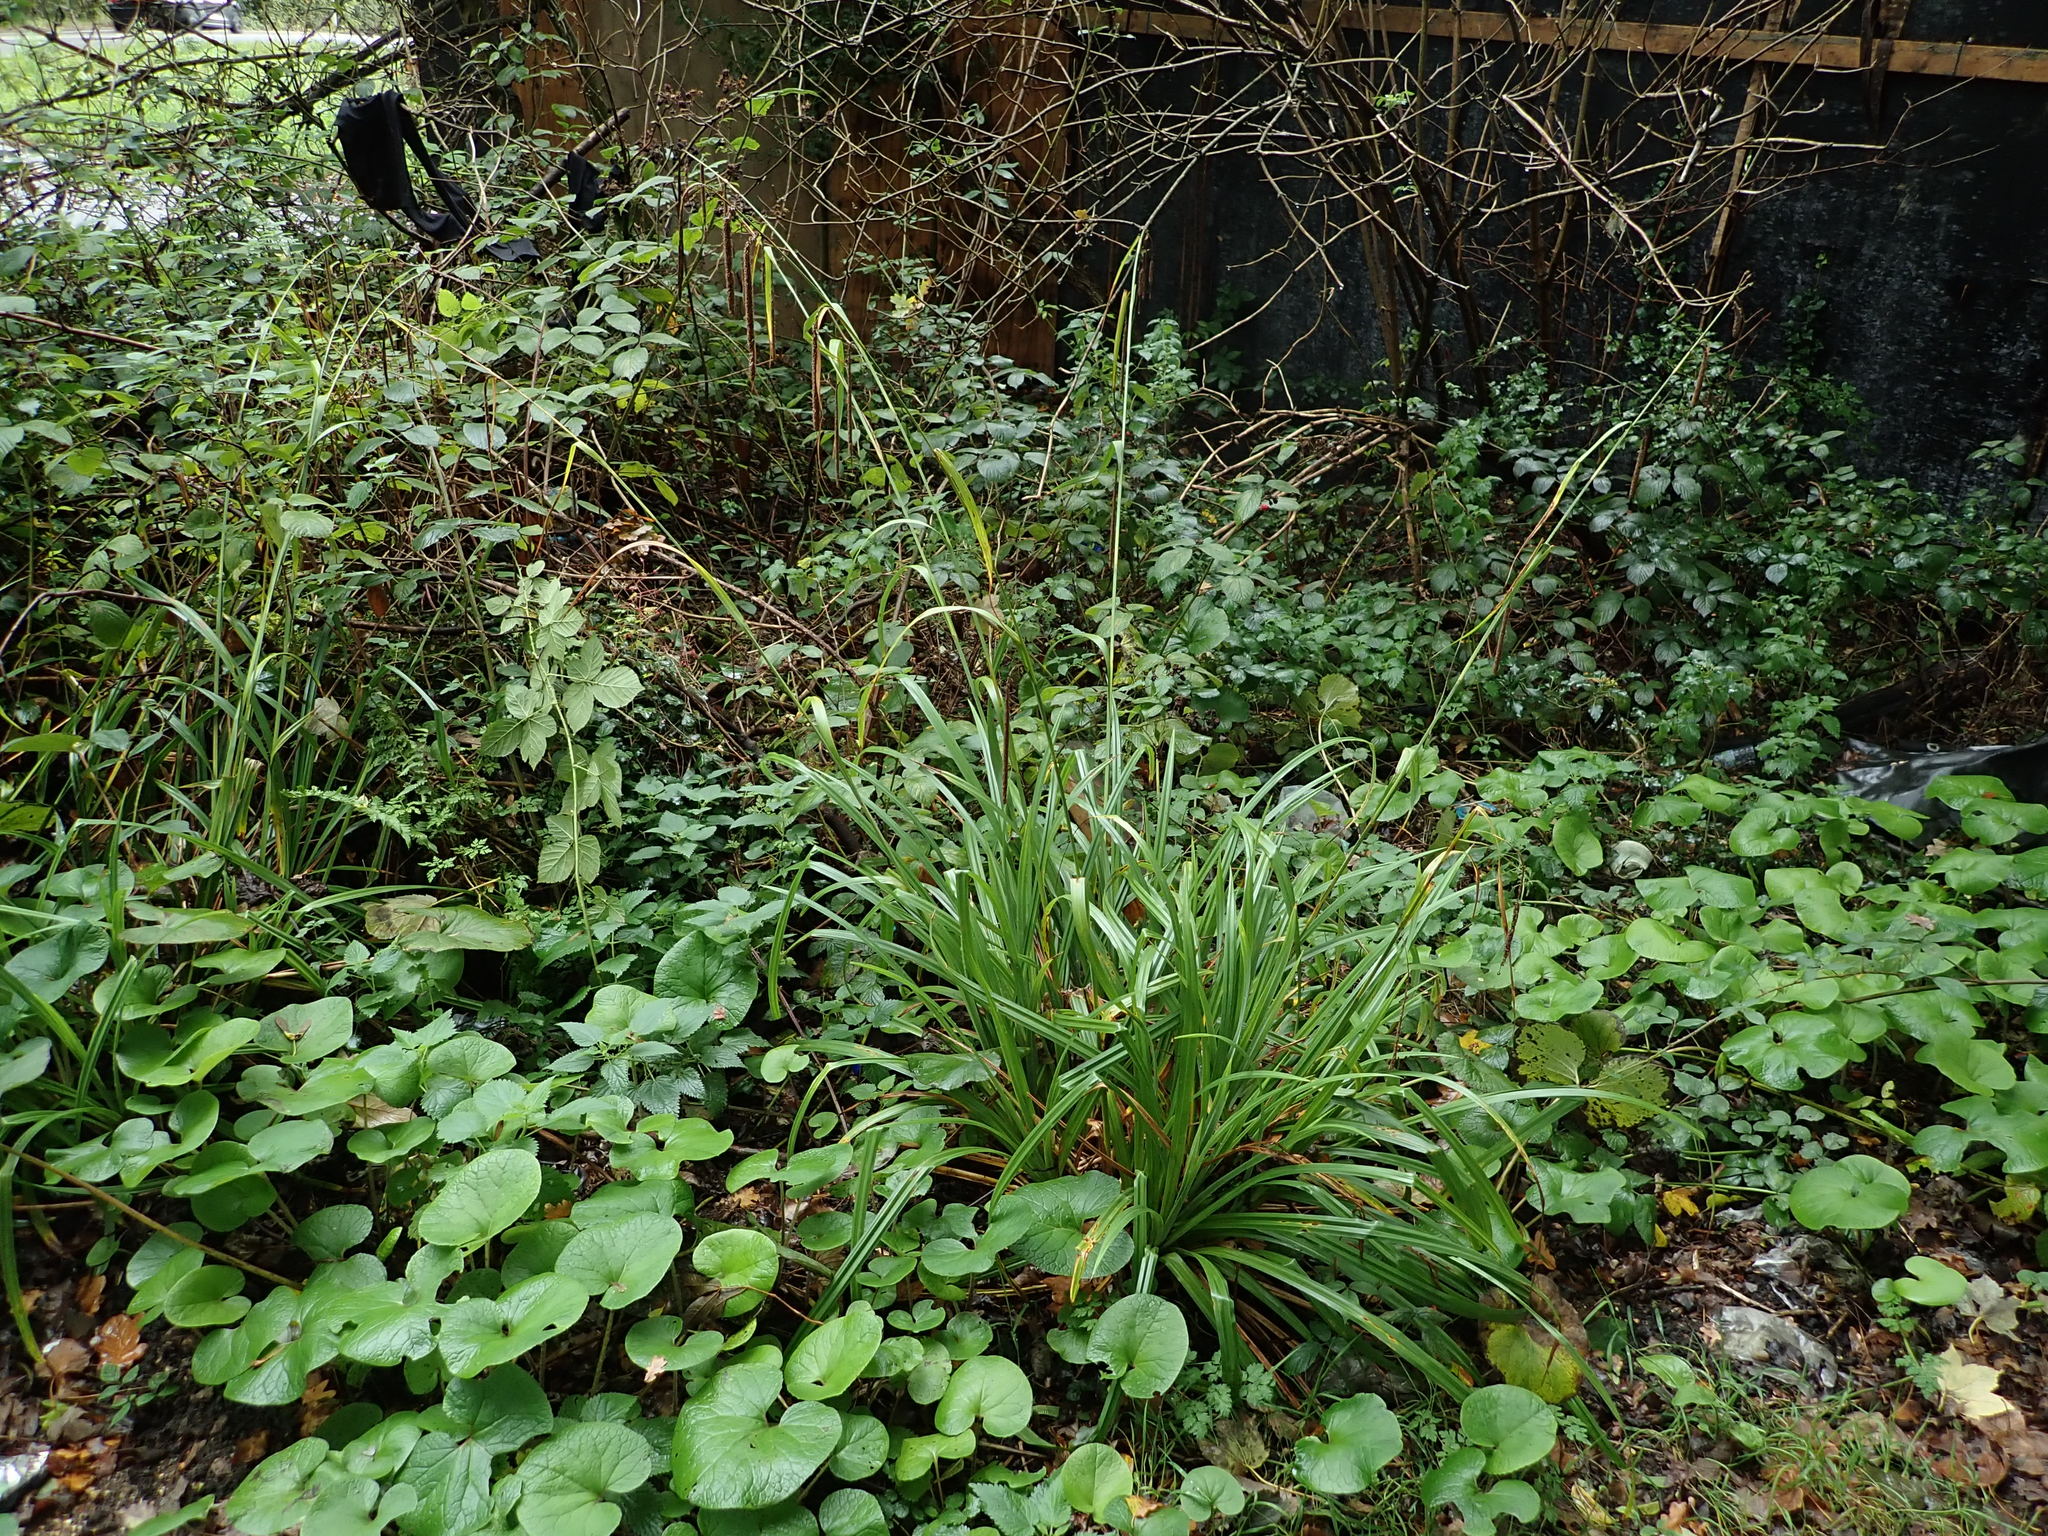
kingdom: Plantae
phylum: Tracheophyta
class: Liliopsida
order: Poales
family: Cyperaceae
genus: Carex
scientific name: Carex pendula
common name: Pendulous sedge
